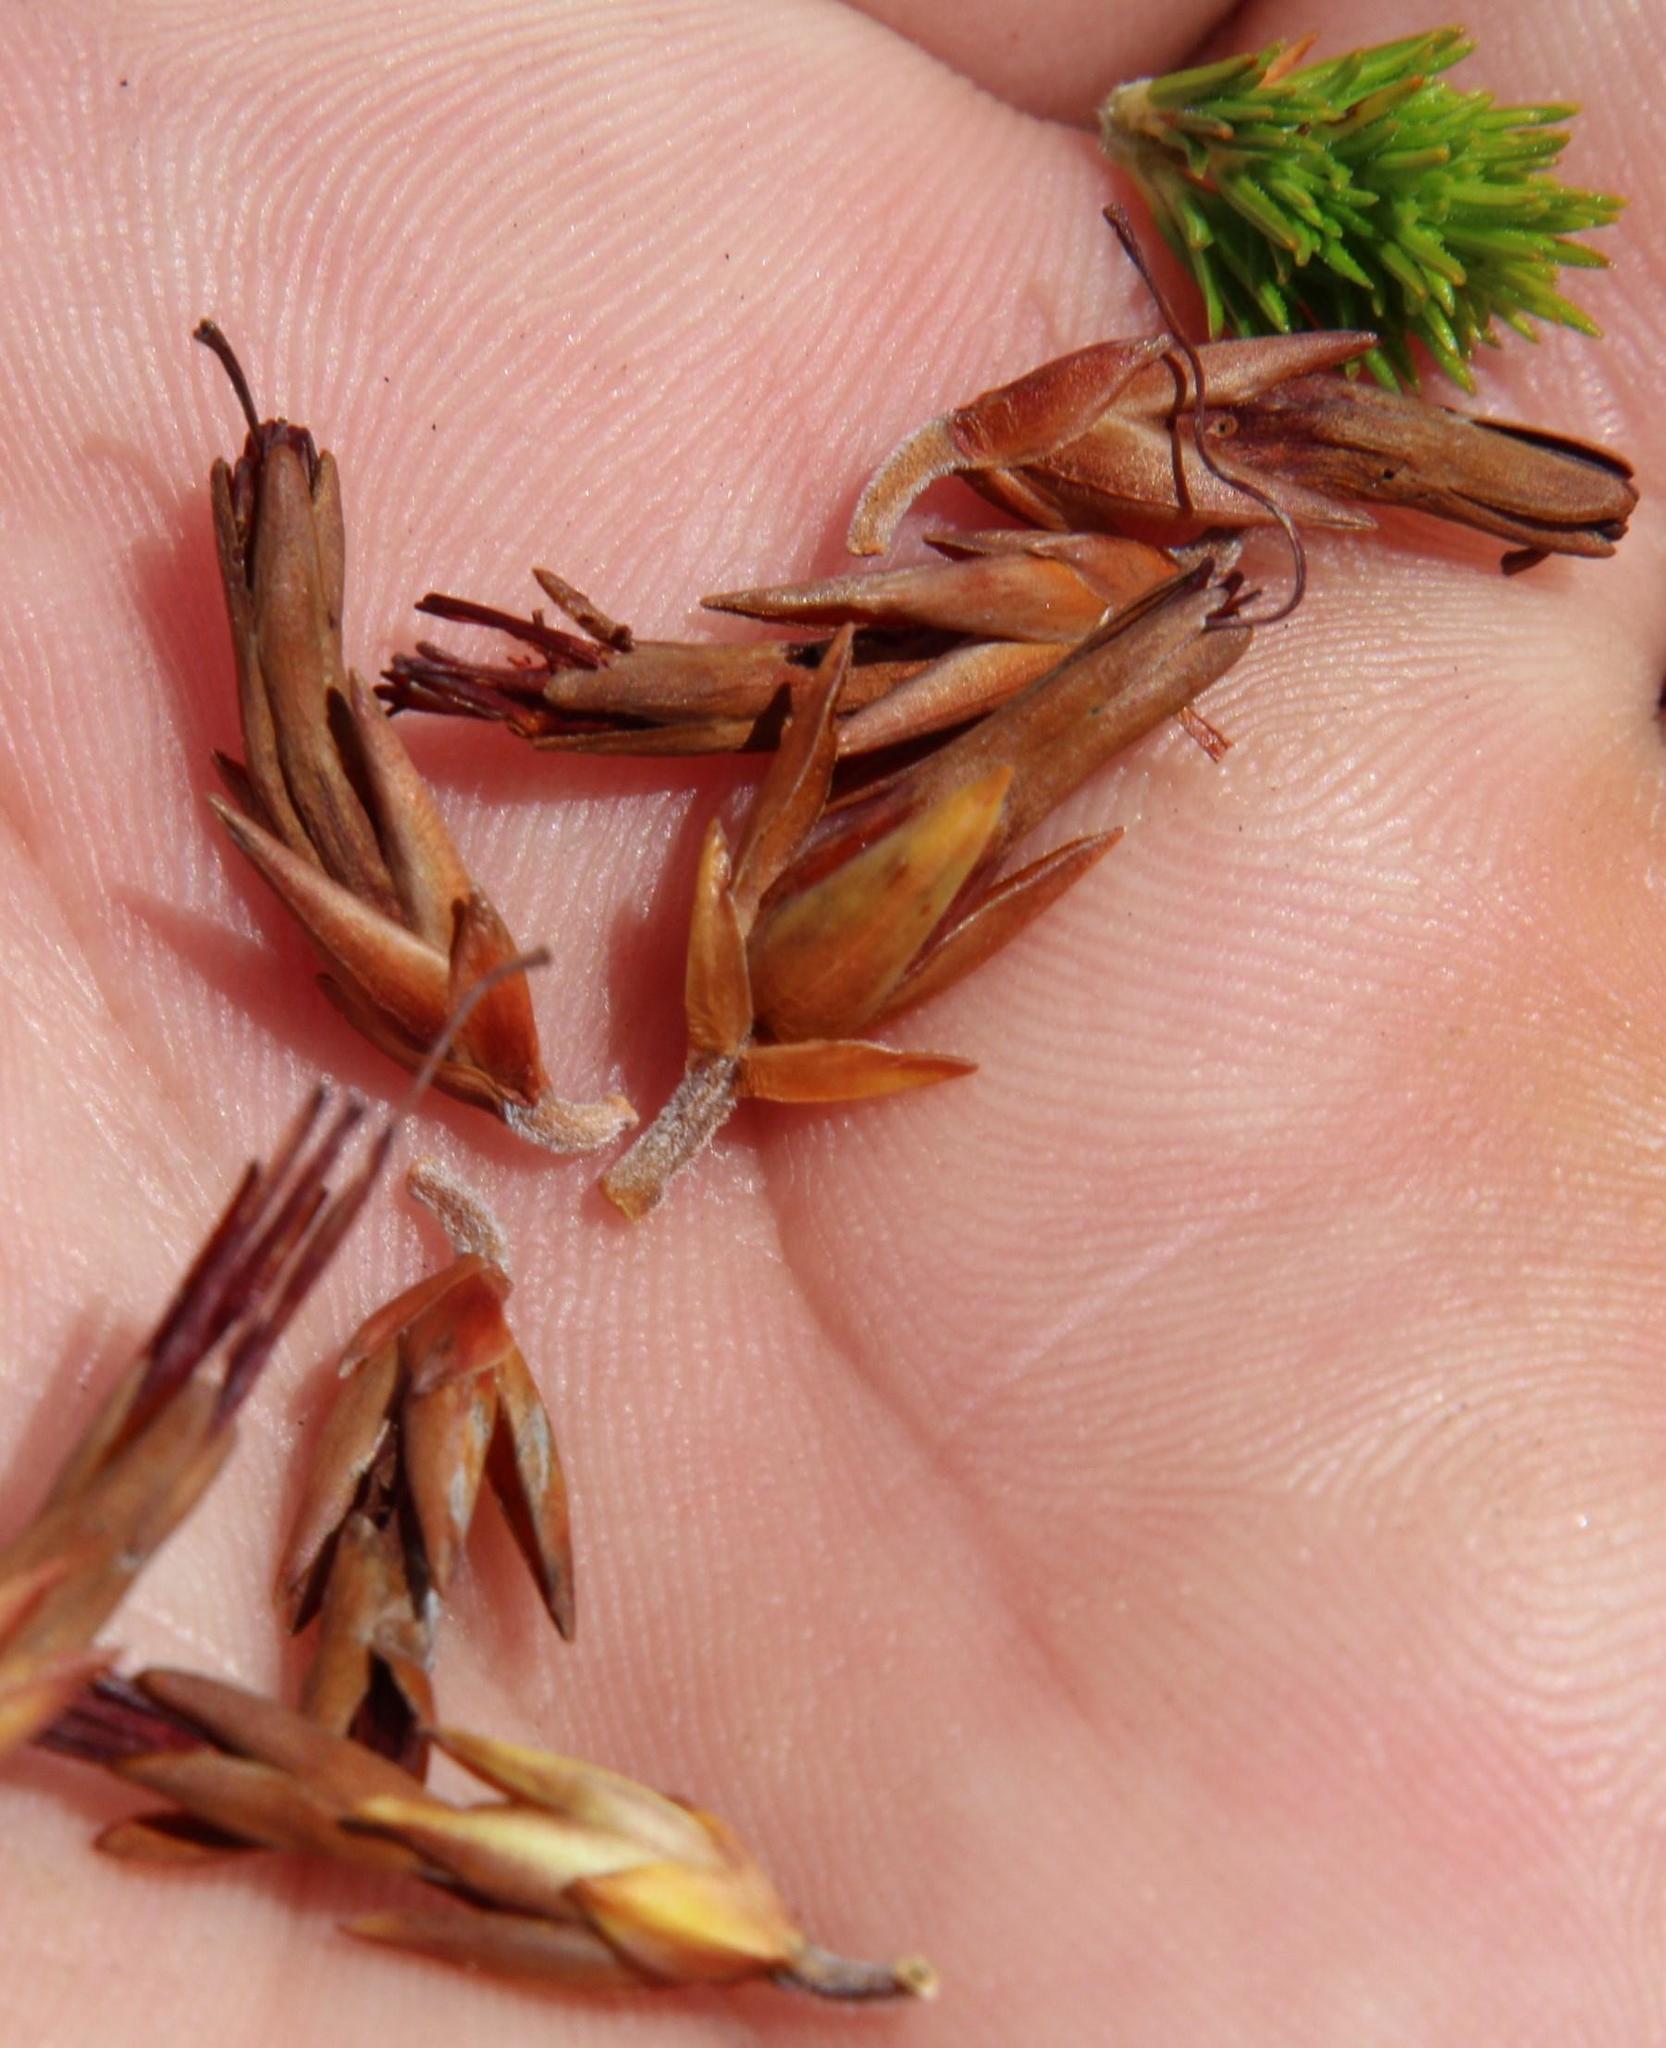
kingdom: Plantae
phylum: Tracheophyta
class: Magnoliopsida
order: Ericales
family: Ericaceae
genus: Erica
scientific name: Erica coccinea
